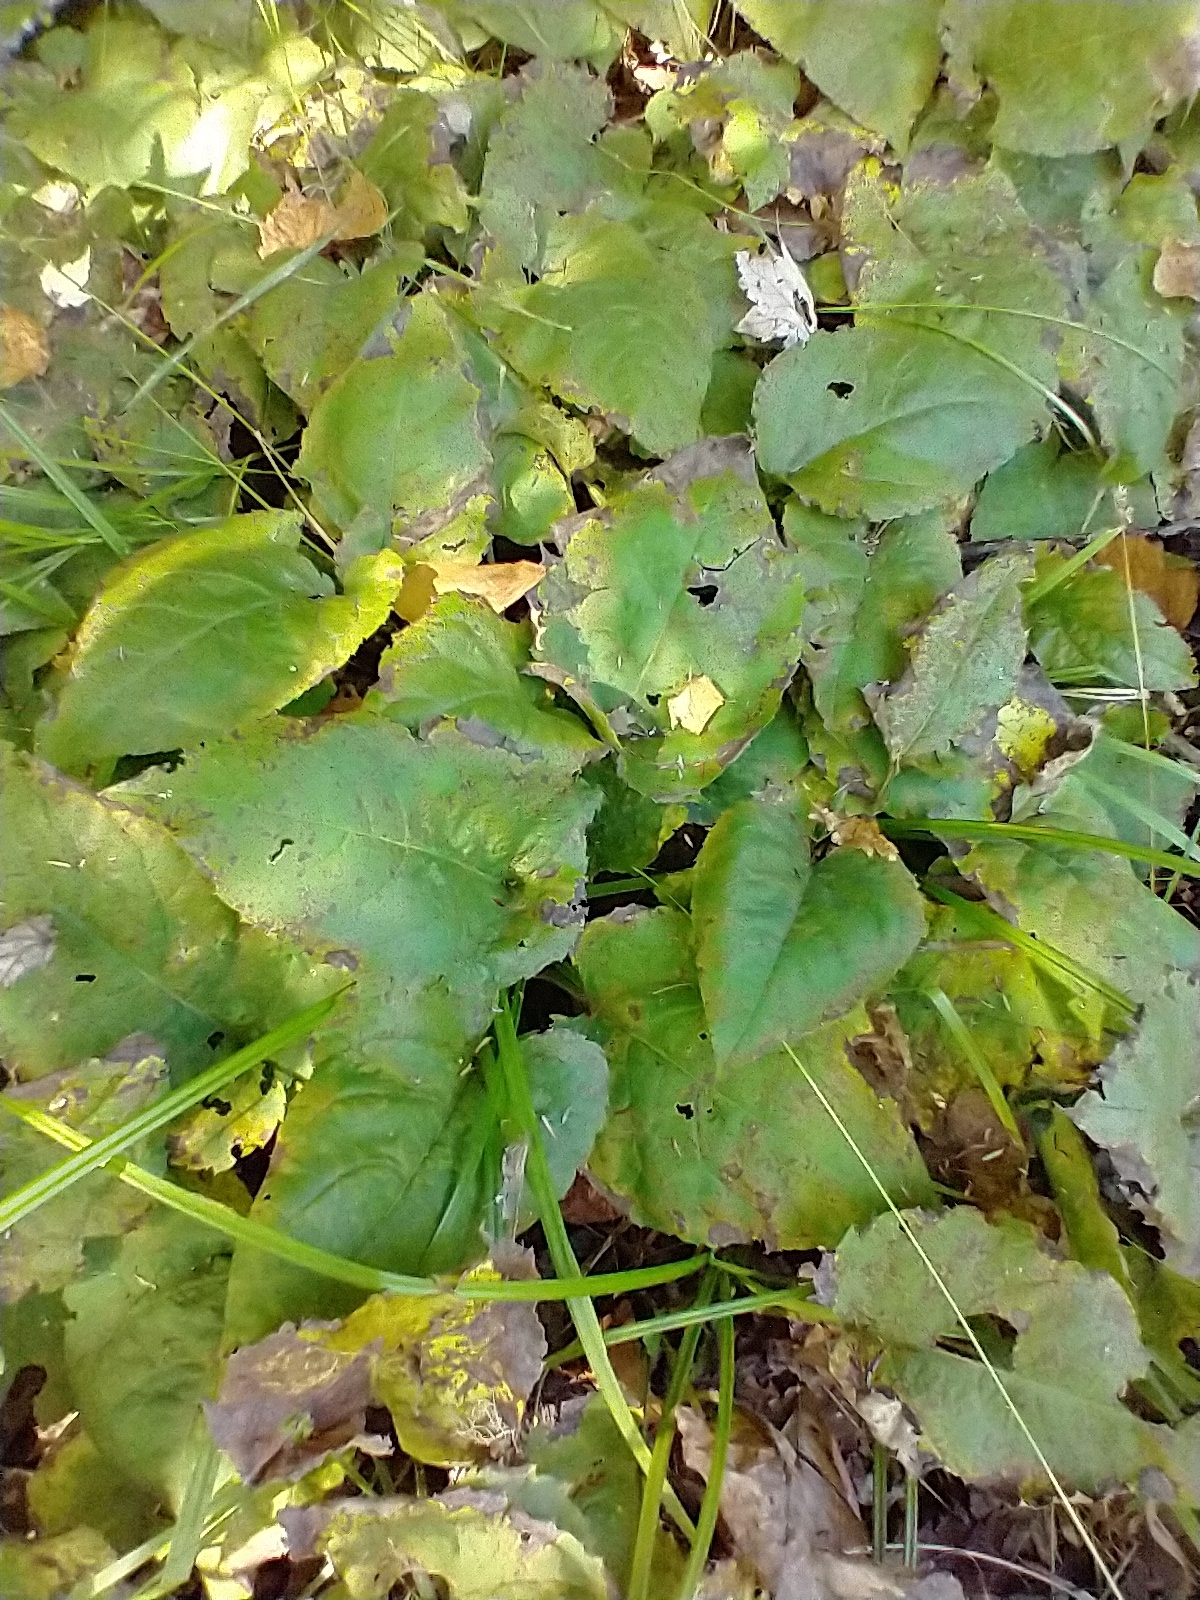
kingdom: Plantae
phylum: Tracheophyta
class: Magnoliopsida
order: Asterales
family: Asteraceae
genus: Eurybia
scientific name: Eurybia macrophylla
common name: Big-leaved aster
